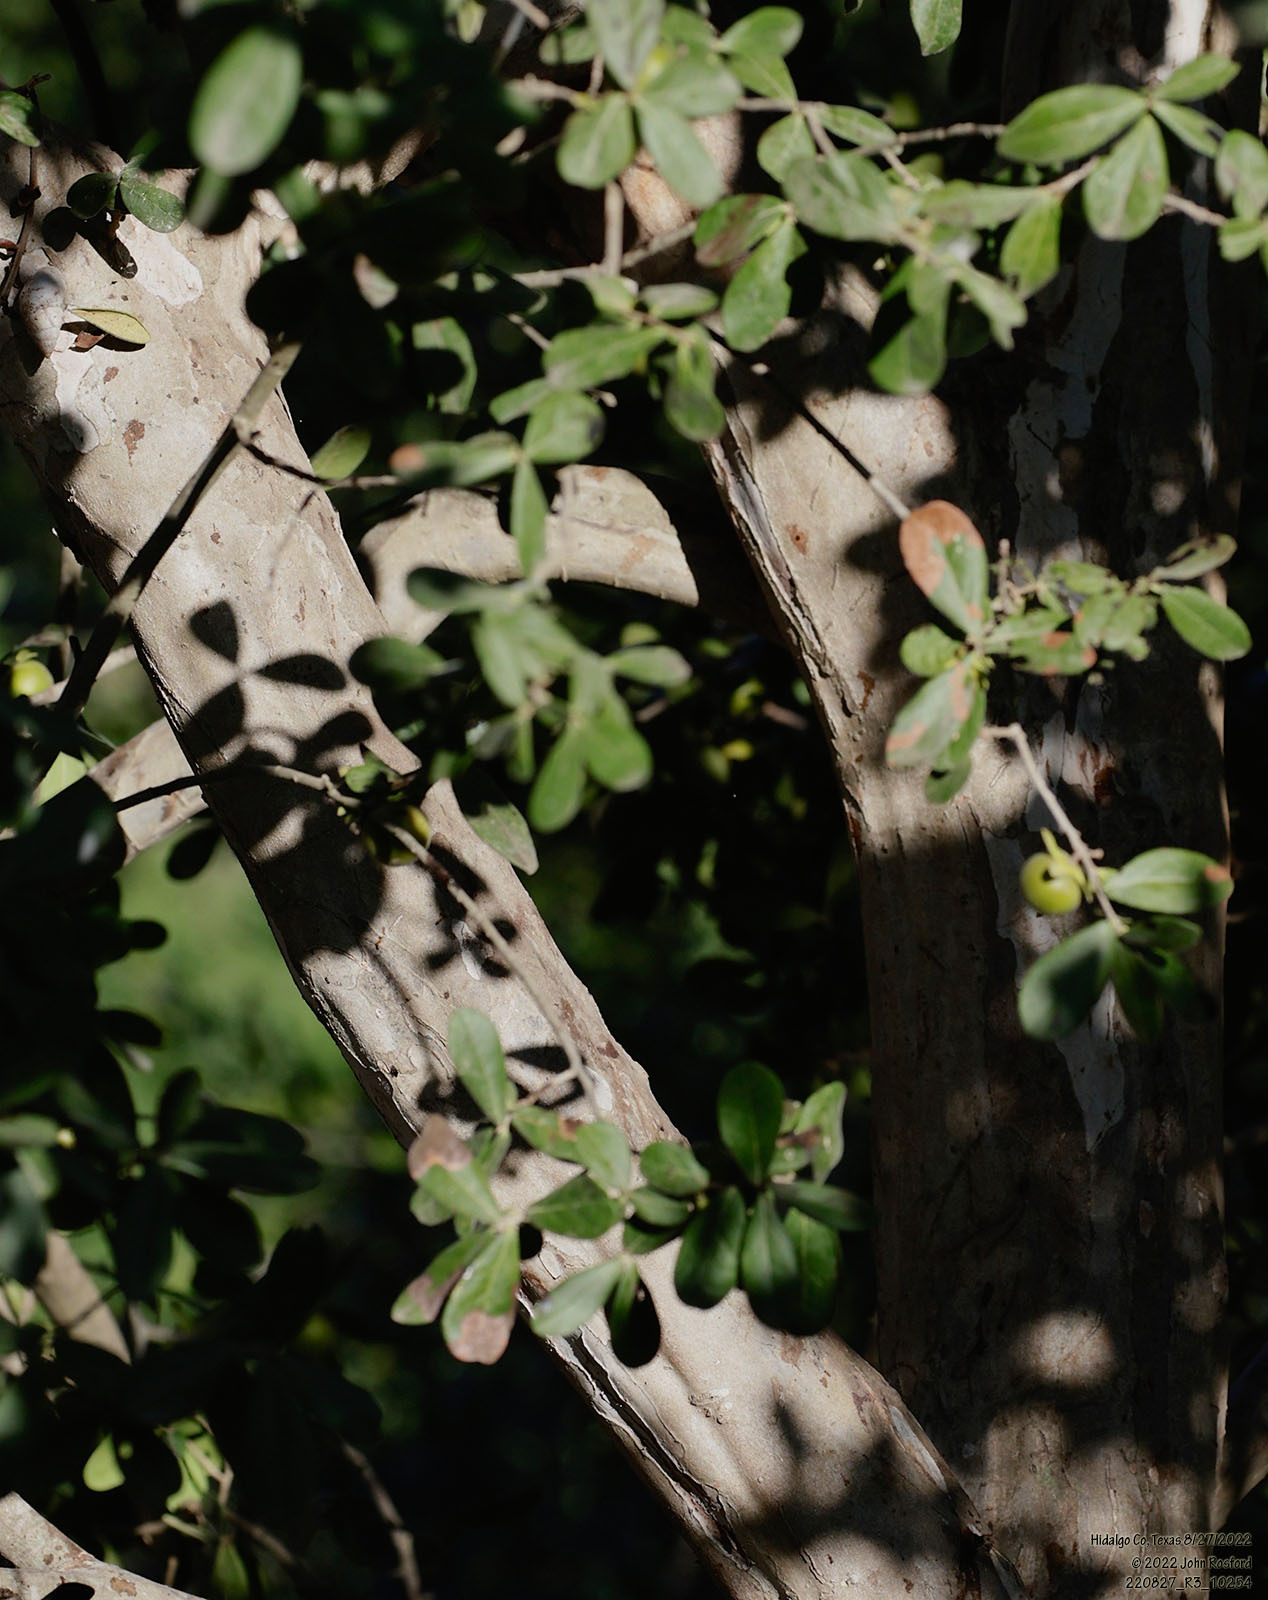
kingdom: Plantae
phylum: Tracheophyta
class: Magnoliopsida
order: Ericales
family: Ebenaceae
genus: Diospyros
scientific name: Diospyros texana
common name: Texas persimmon
